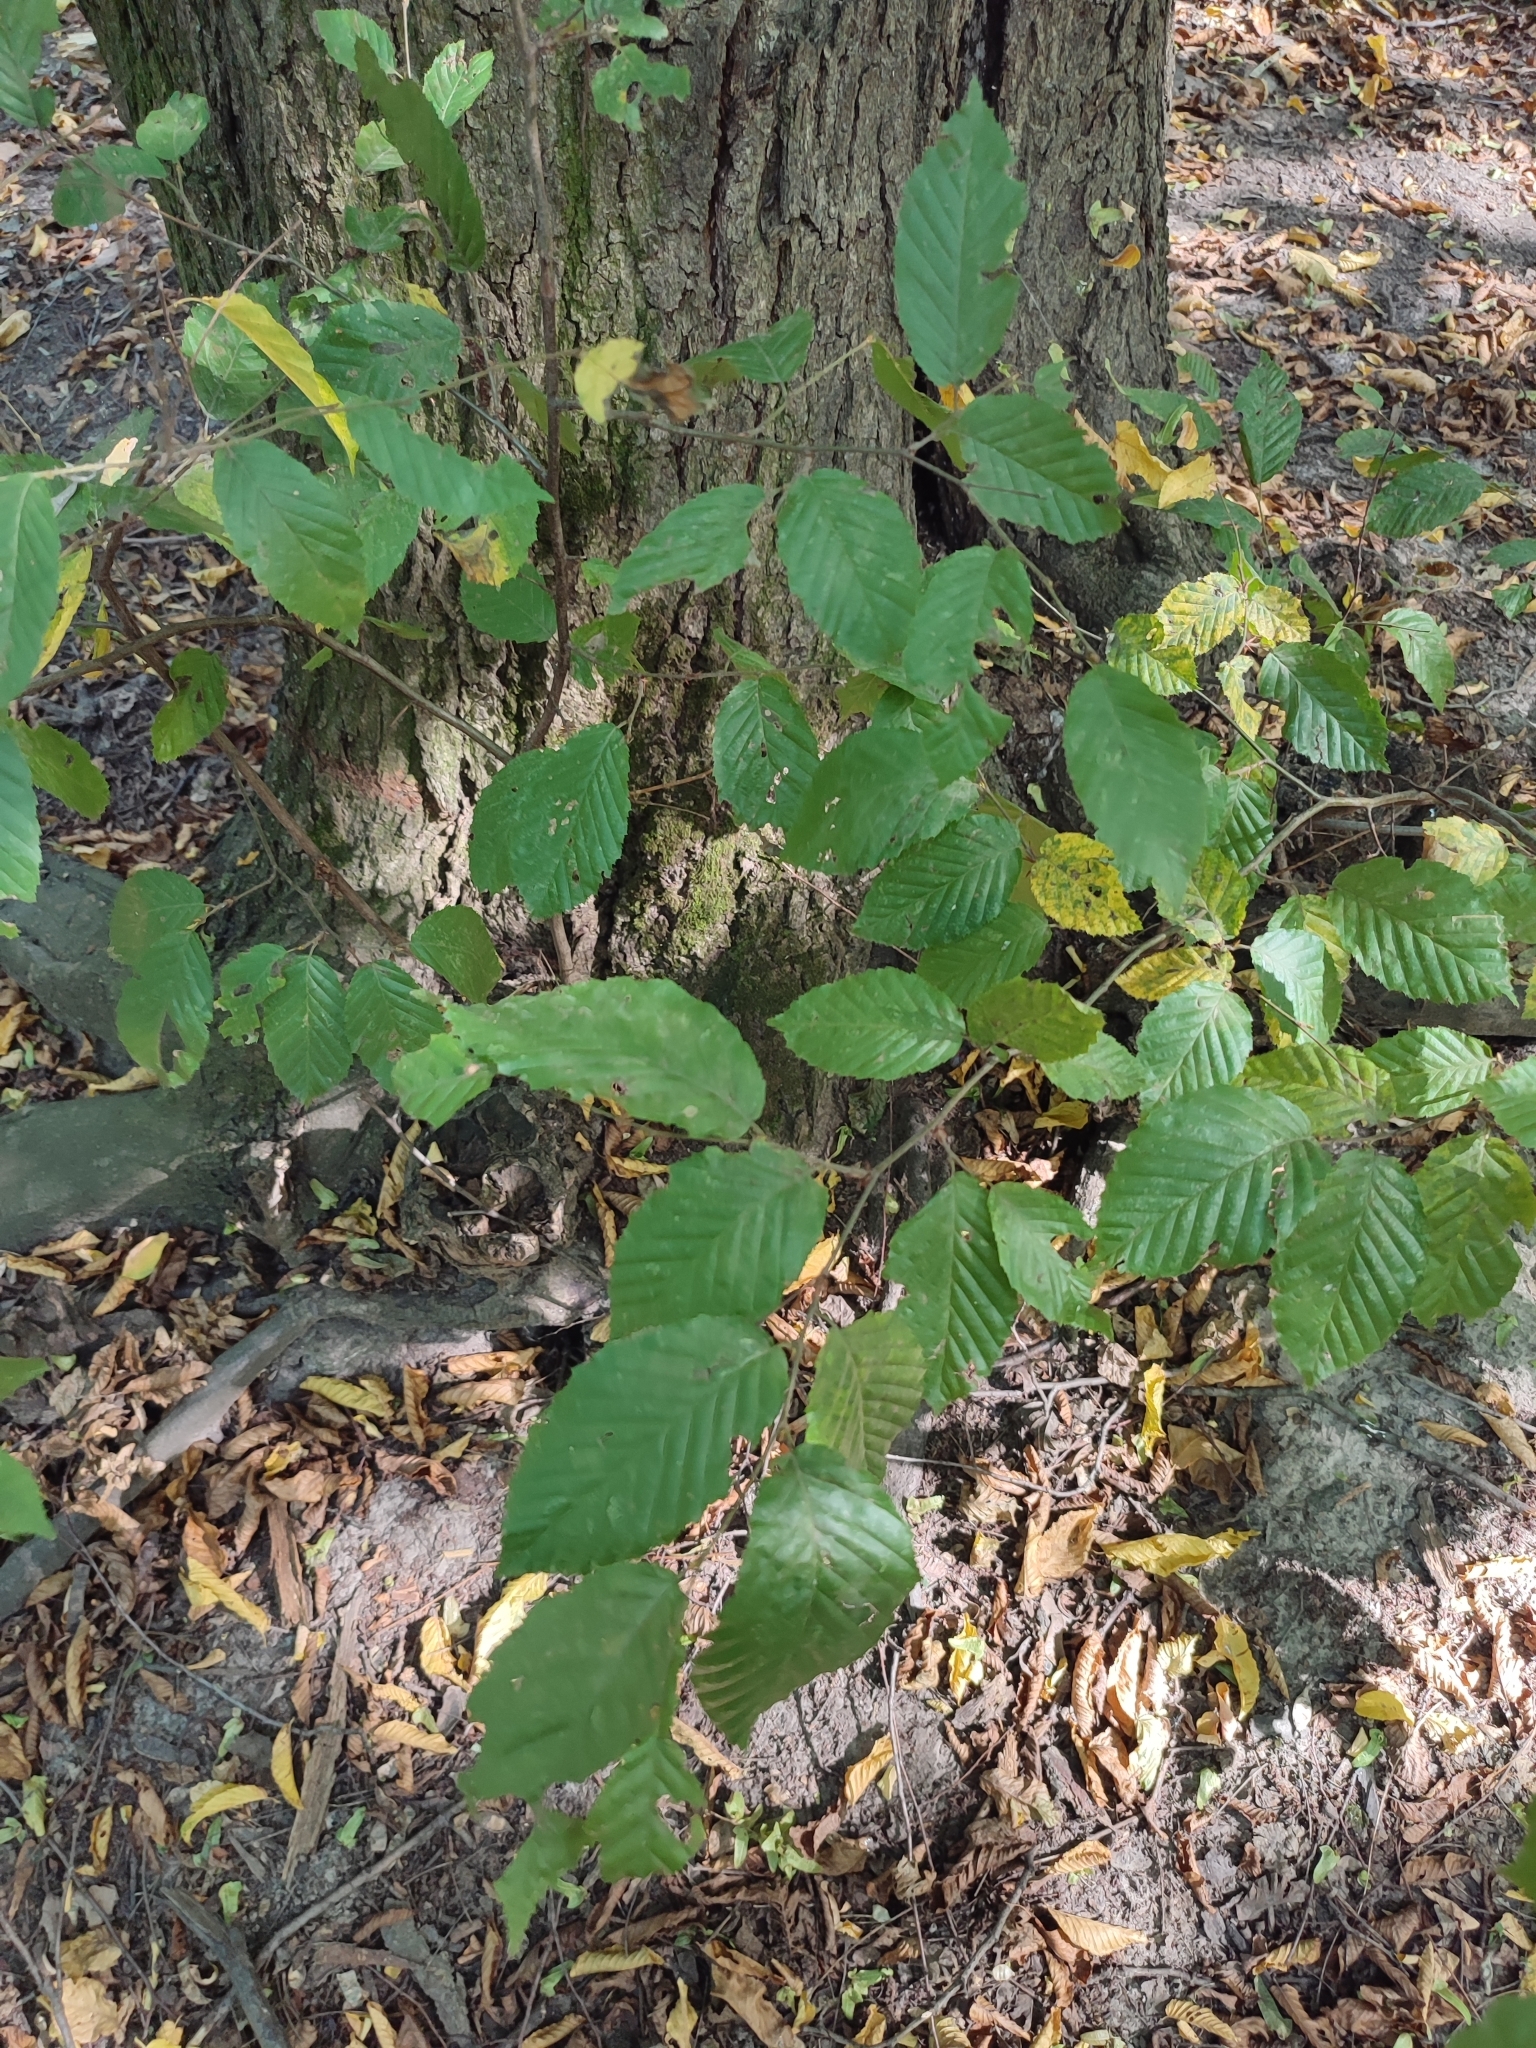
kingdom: Plantae
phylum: Tracheophyta
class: Magnoliopsida
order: Fagales
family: Betulaceae
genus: Carpinus
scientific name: Carpinus betulus
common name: Hornbeam
